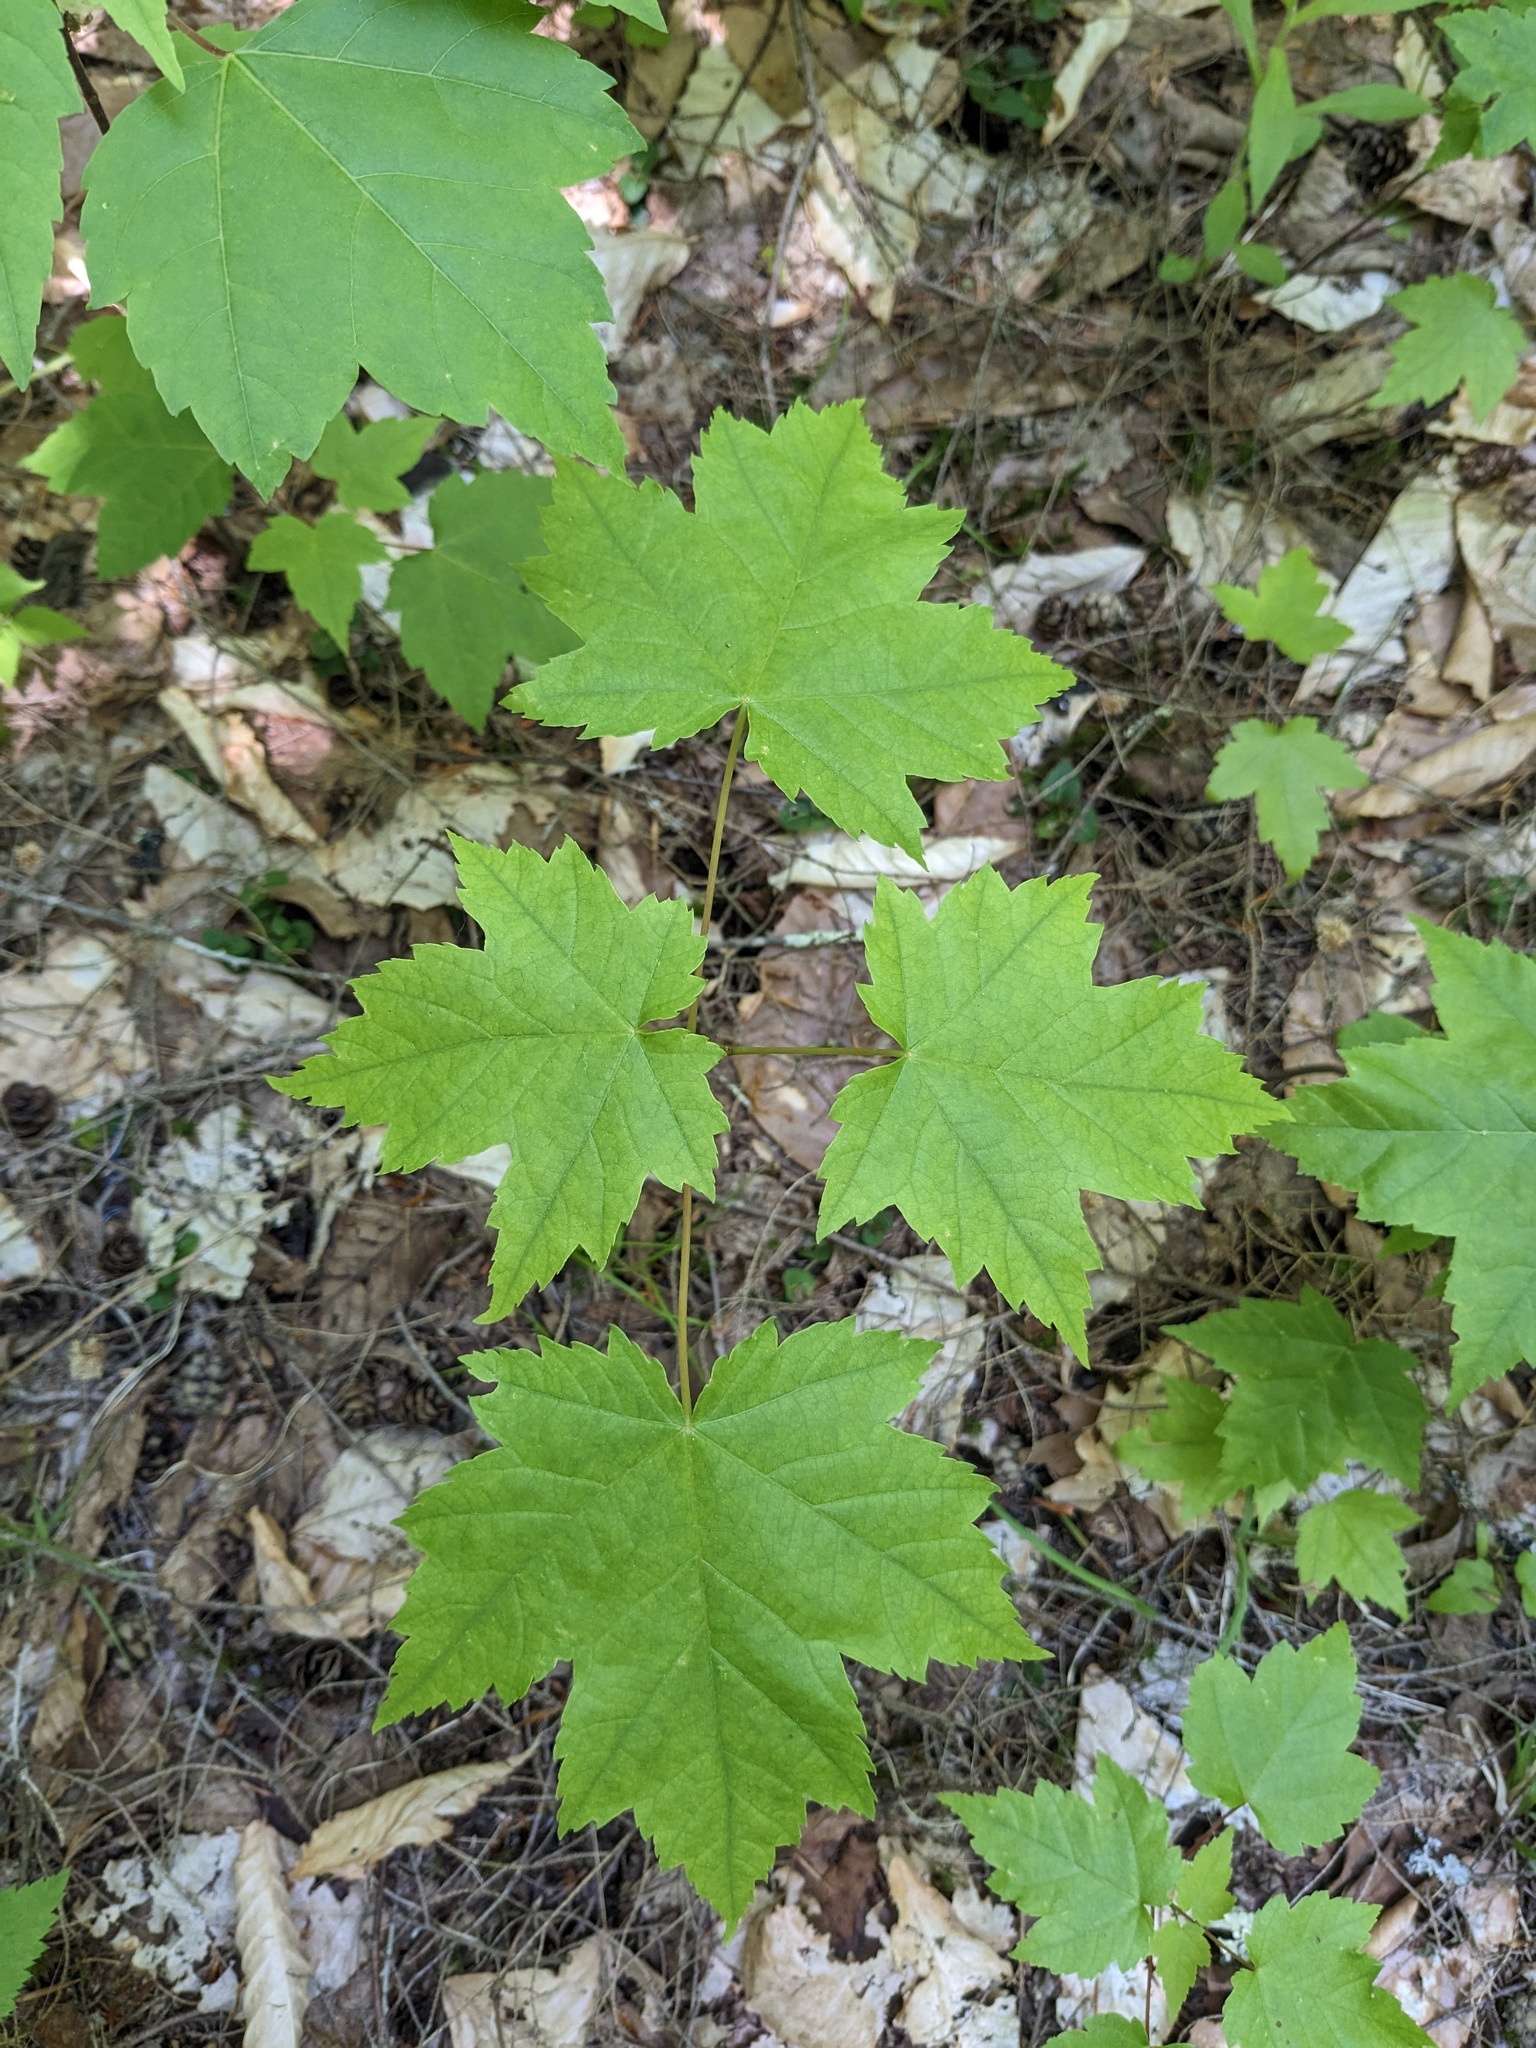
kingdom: Plantae
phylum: Tracheophyta
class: Magnoliopsida
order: Sapindales
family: Sapindaceae
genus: Acer
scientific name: Acer rubrum
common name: Red maple
